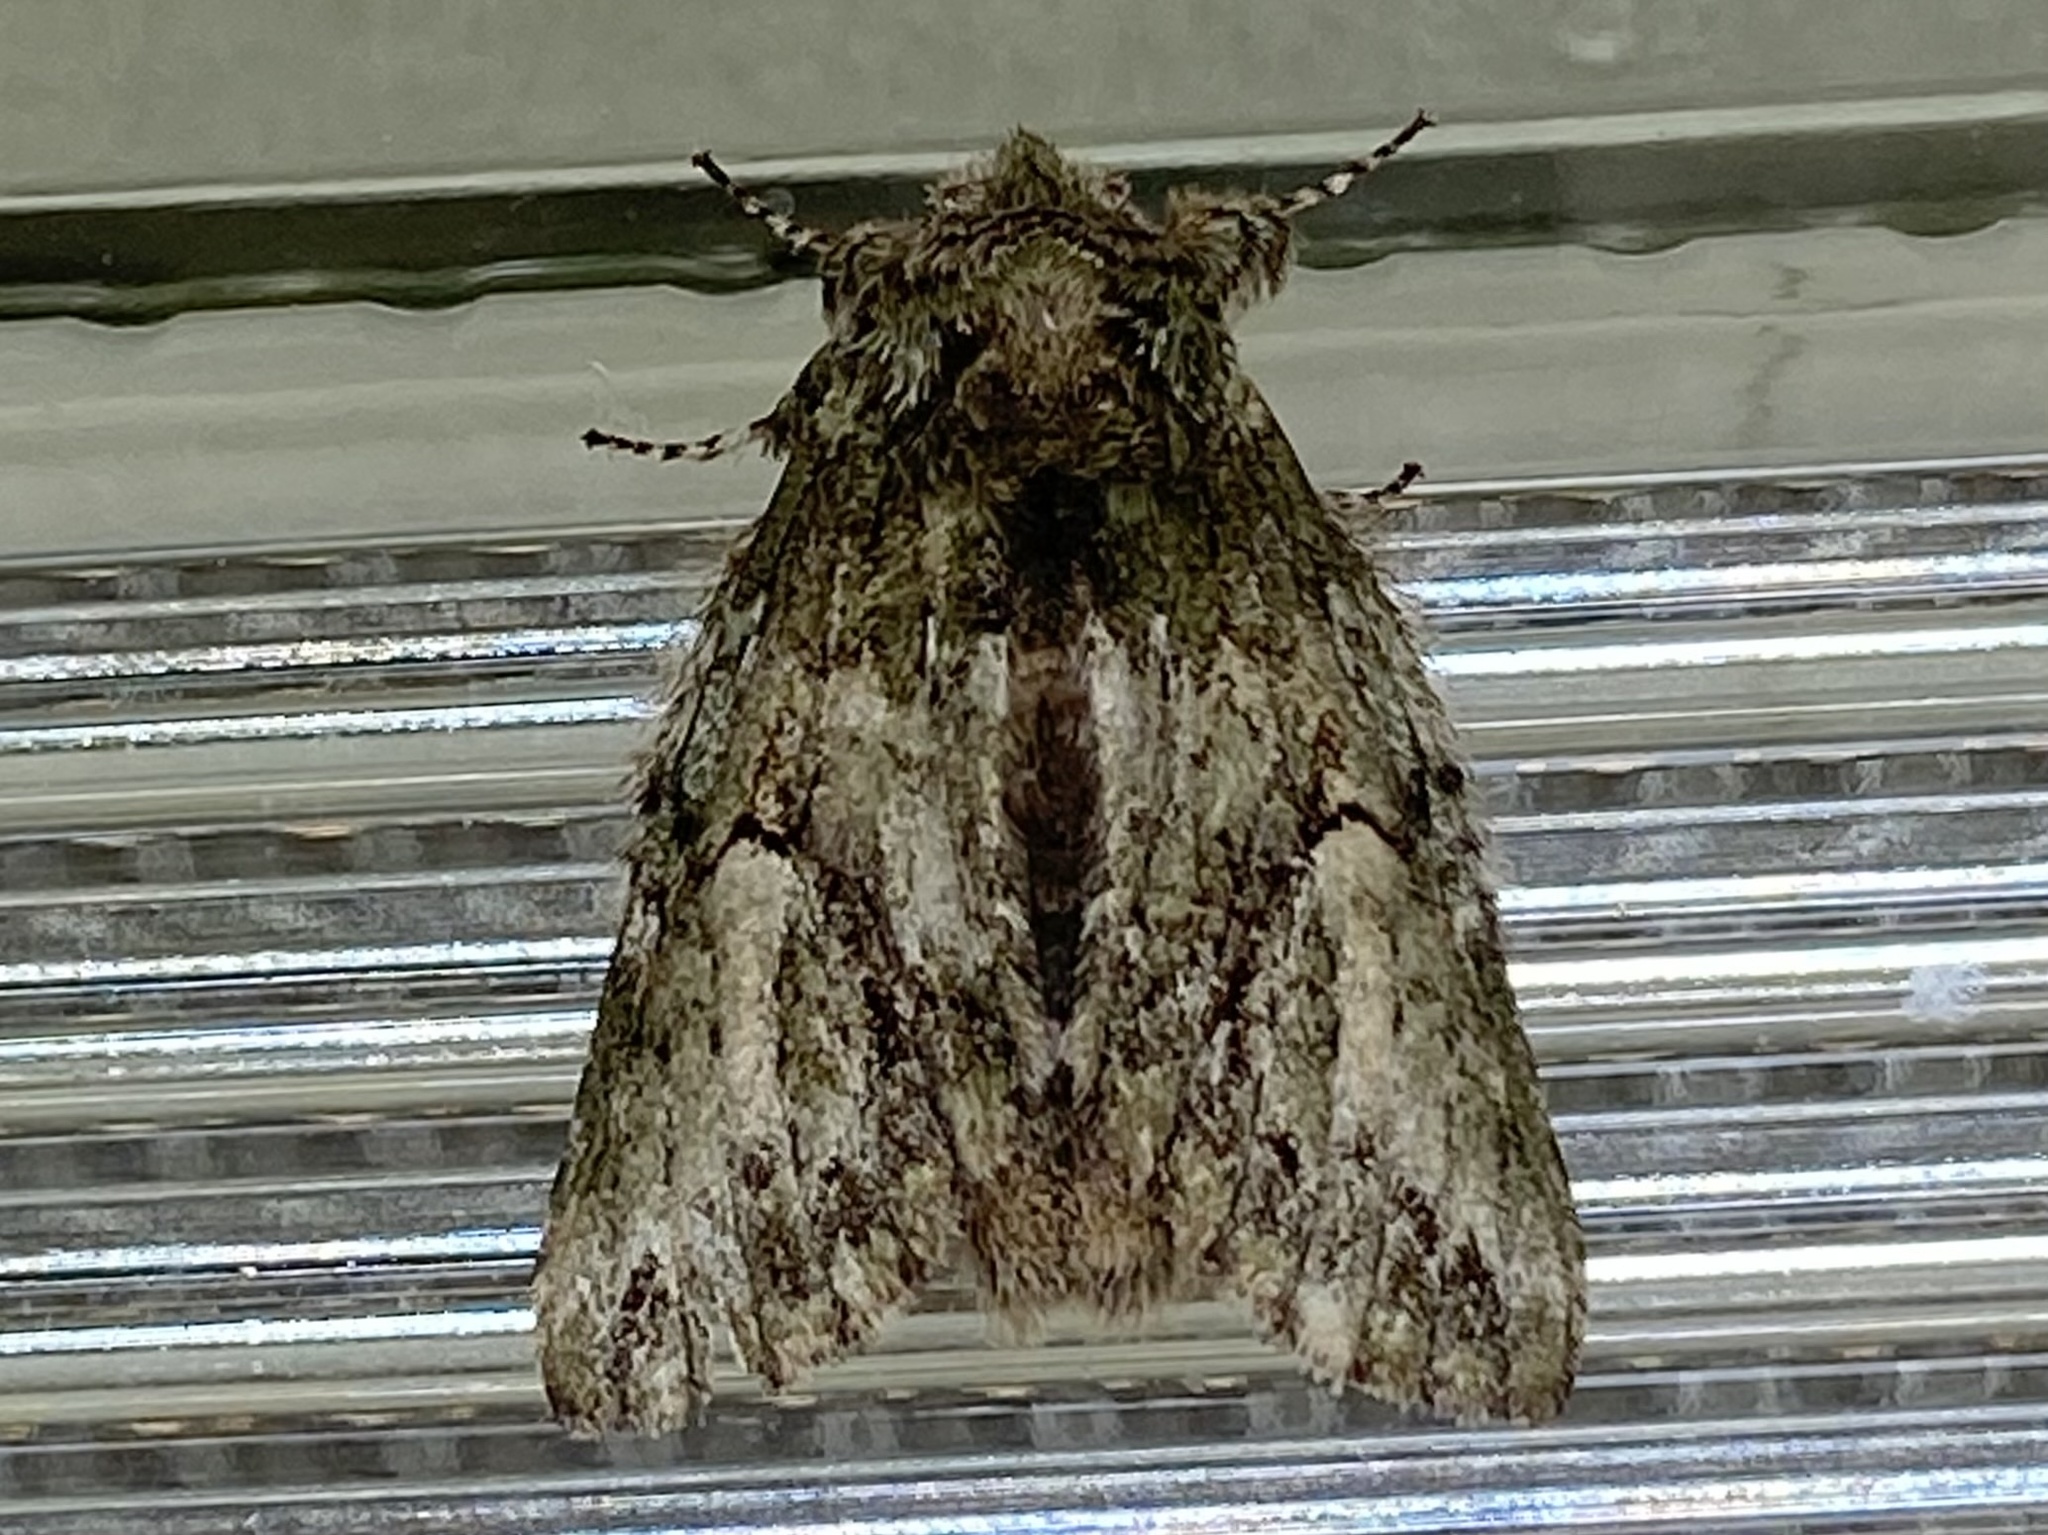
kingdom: Animalia
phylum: Arthropoda
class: Insecta
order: Lepidoptera
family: Notodontidae
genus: Heterocampa
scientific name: Heterocampa
